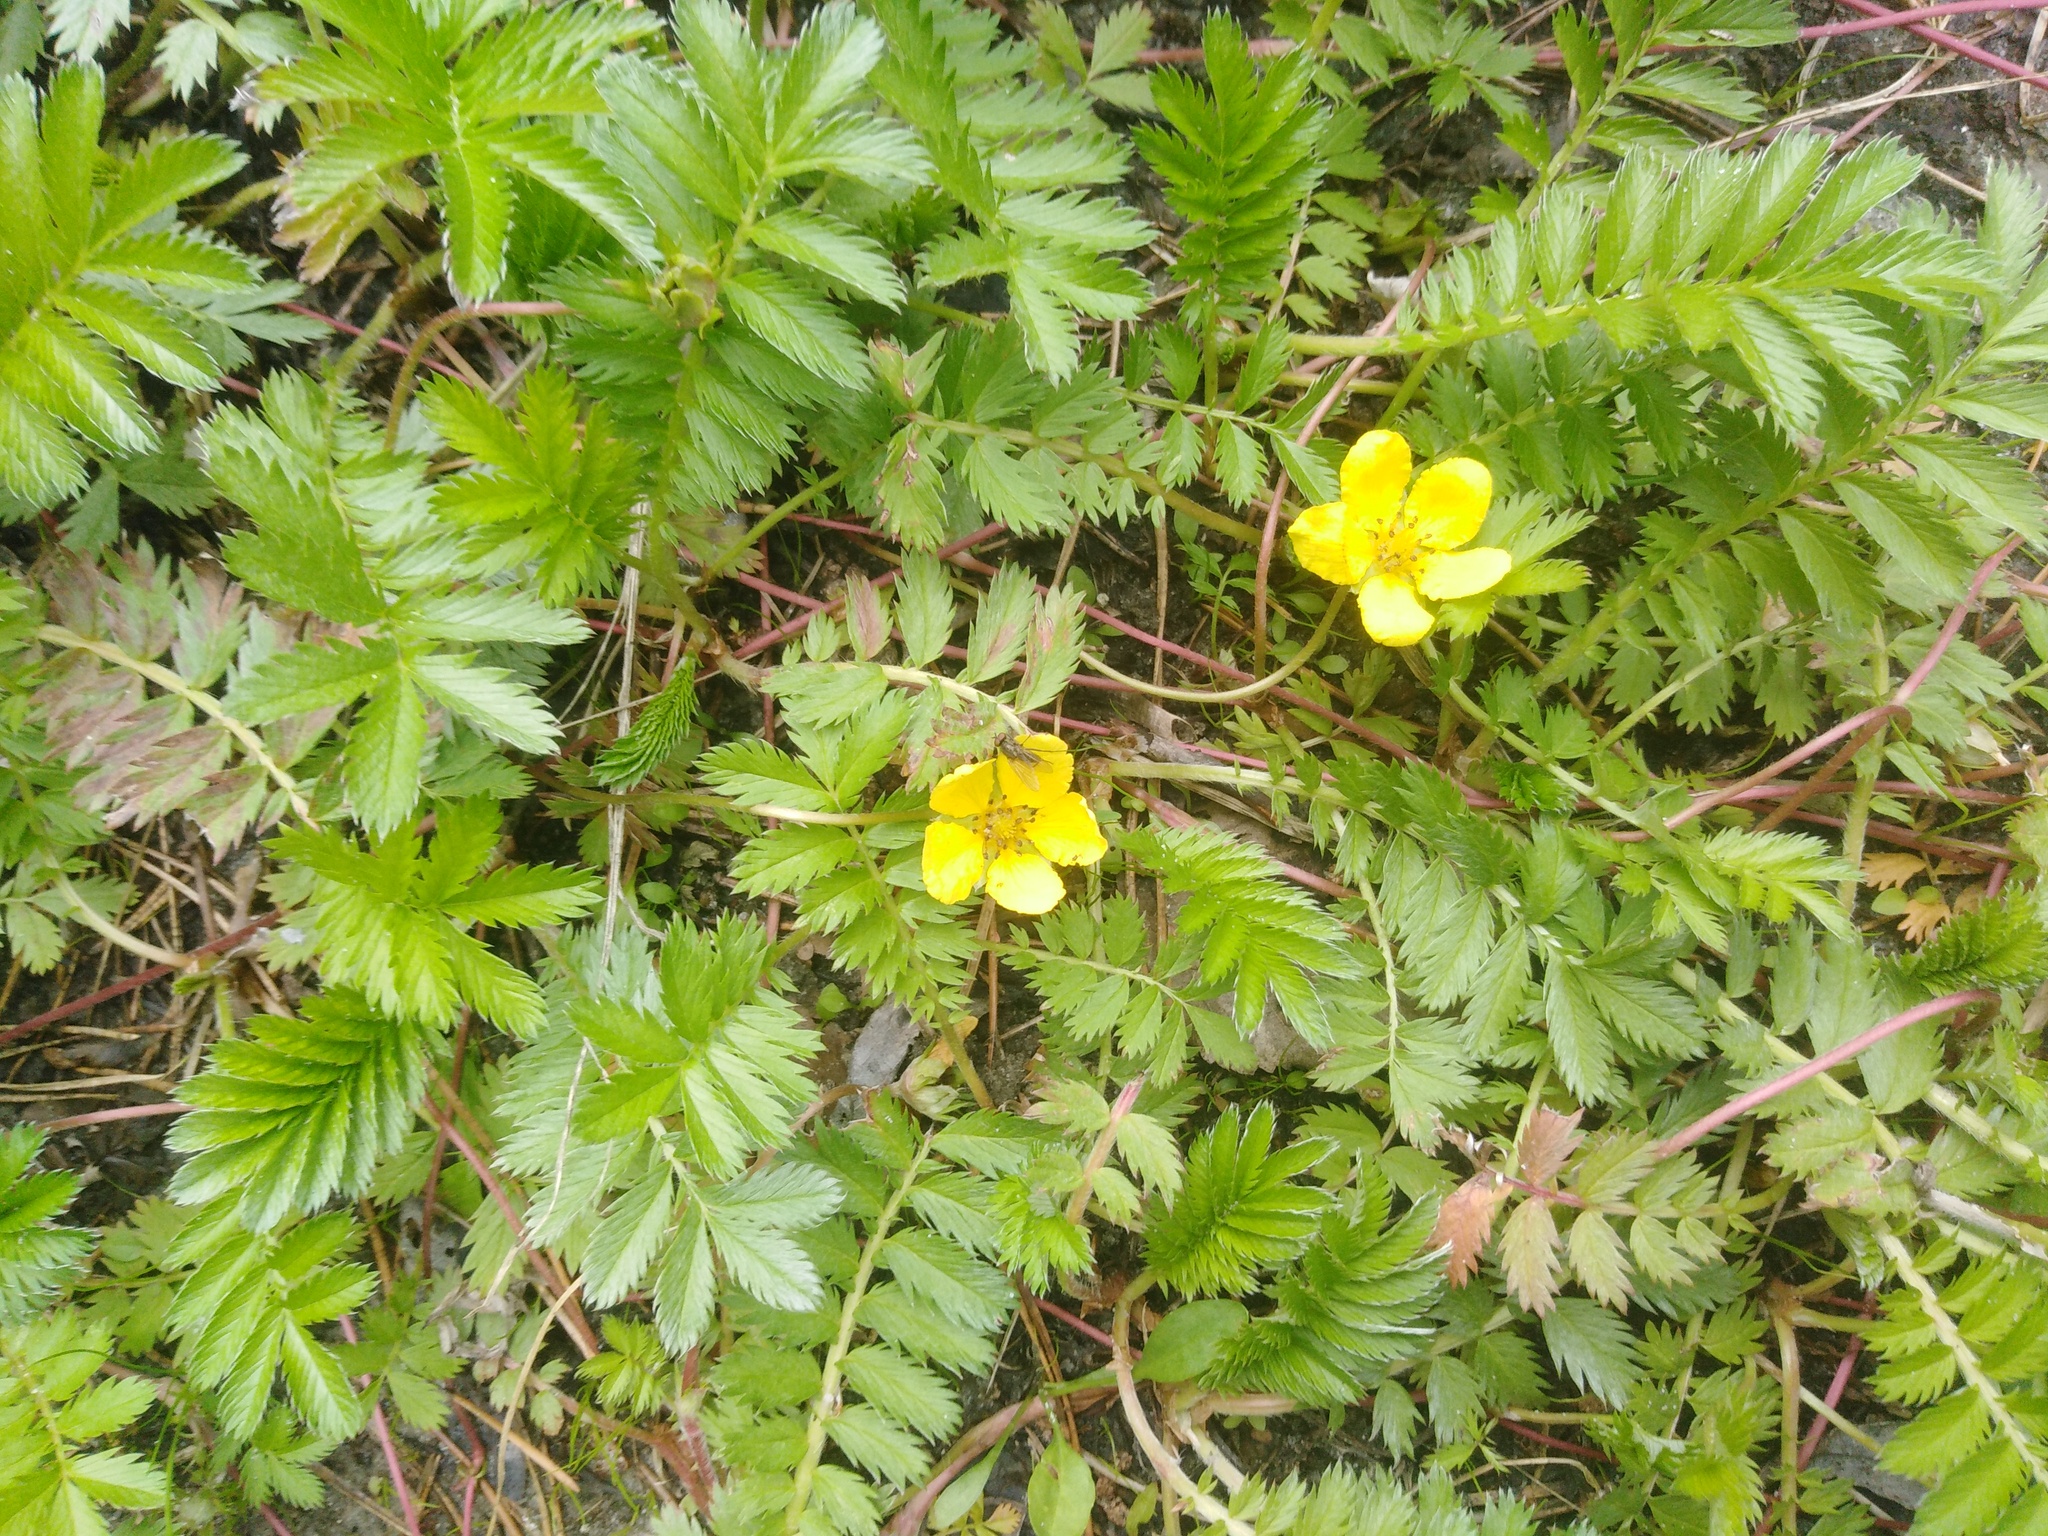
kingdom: Plantae
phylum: Tracheophyta
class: Magnoliopsida
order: Rosales
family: Rosaceae
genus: Argentina
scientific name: Argentina anserina
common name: Common silverweed
